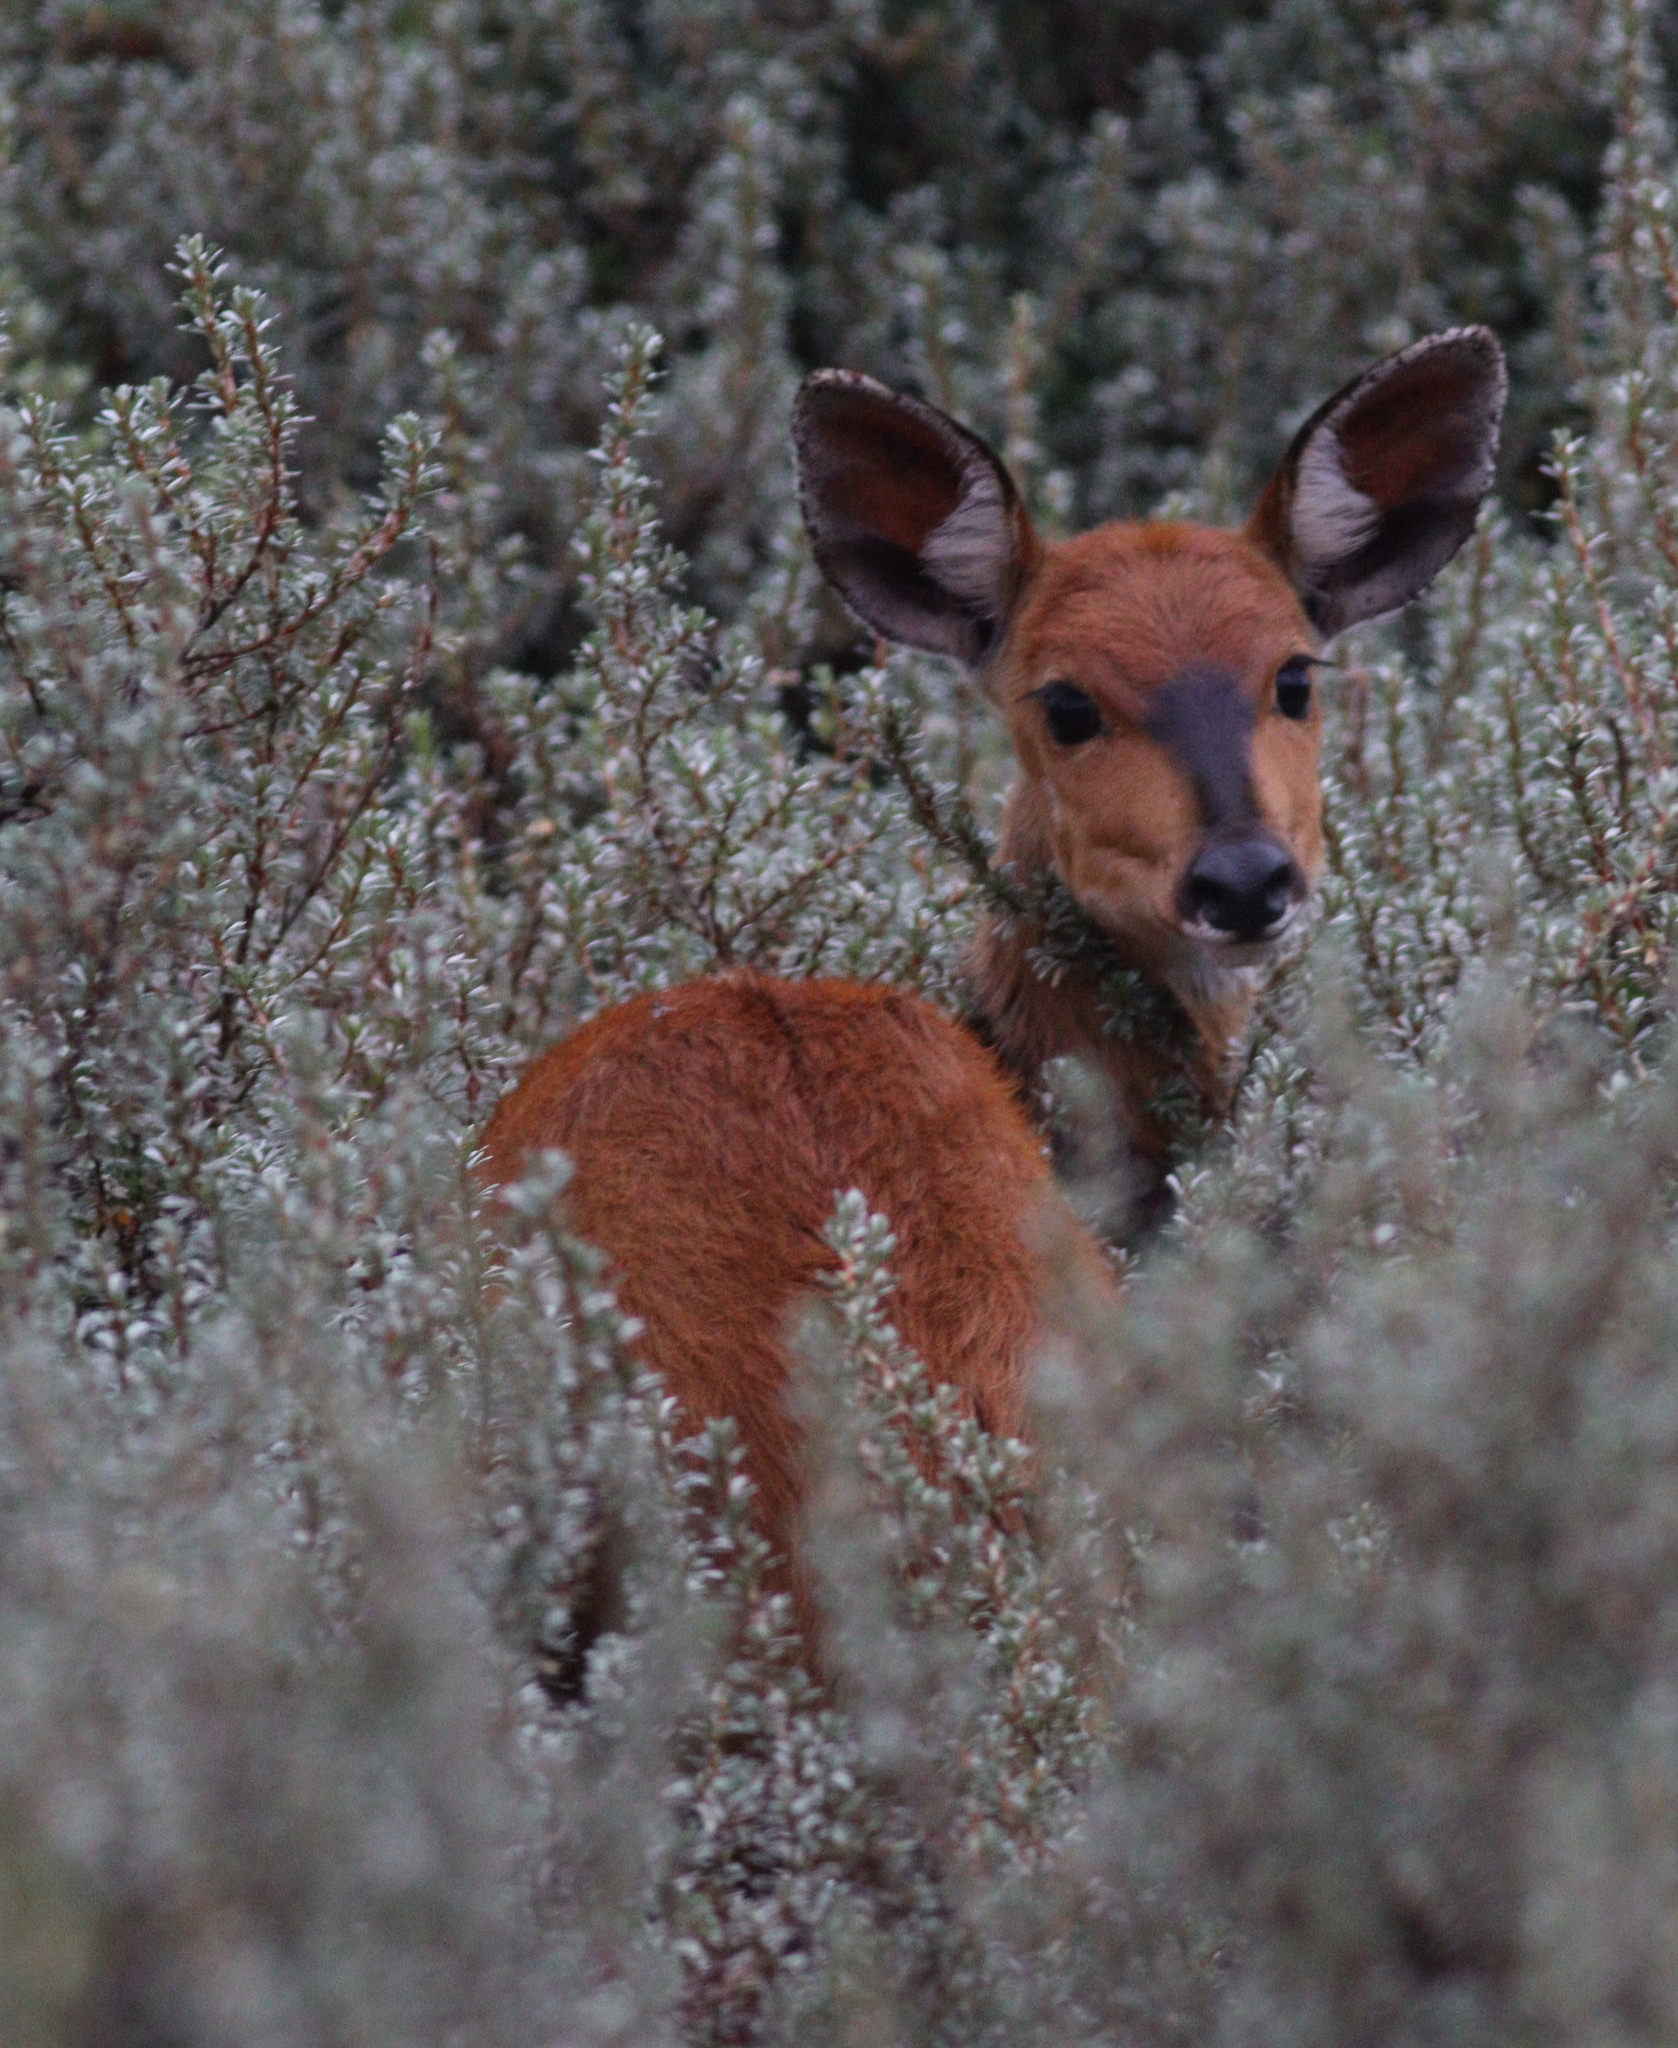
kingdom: Animalia
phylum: Chordata
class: Mammalia
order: Artiodactyla
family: Bovidae
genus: Tragelaphus
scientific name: Tragelaphus scriptus
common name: Bushbuck
